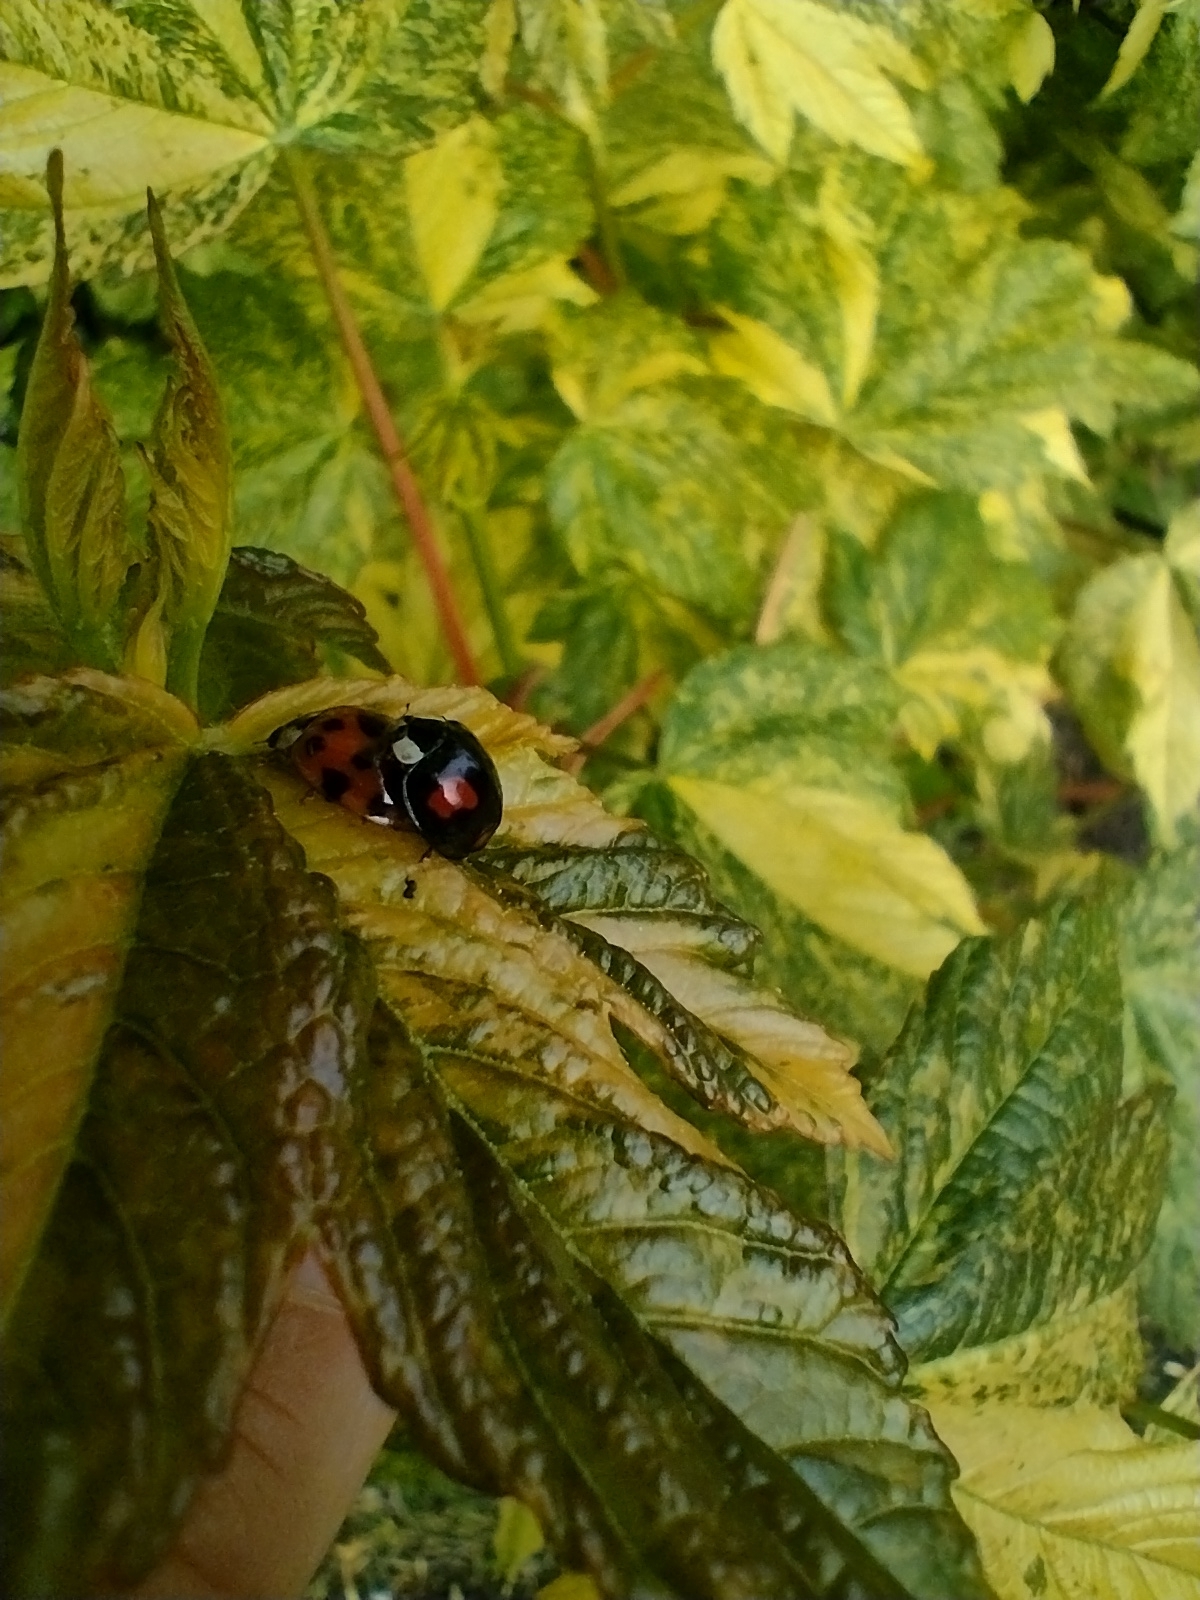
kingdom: Animalia
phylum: Arthropoda
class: Insecta
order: Coleoptera
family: Coccinellidae
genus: Harmonia
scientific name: Harmonia axyridis
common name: Harlequin ladybird
